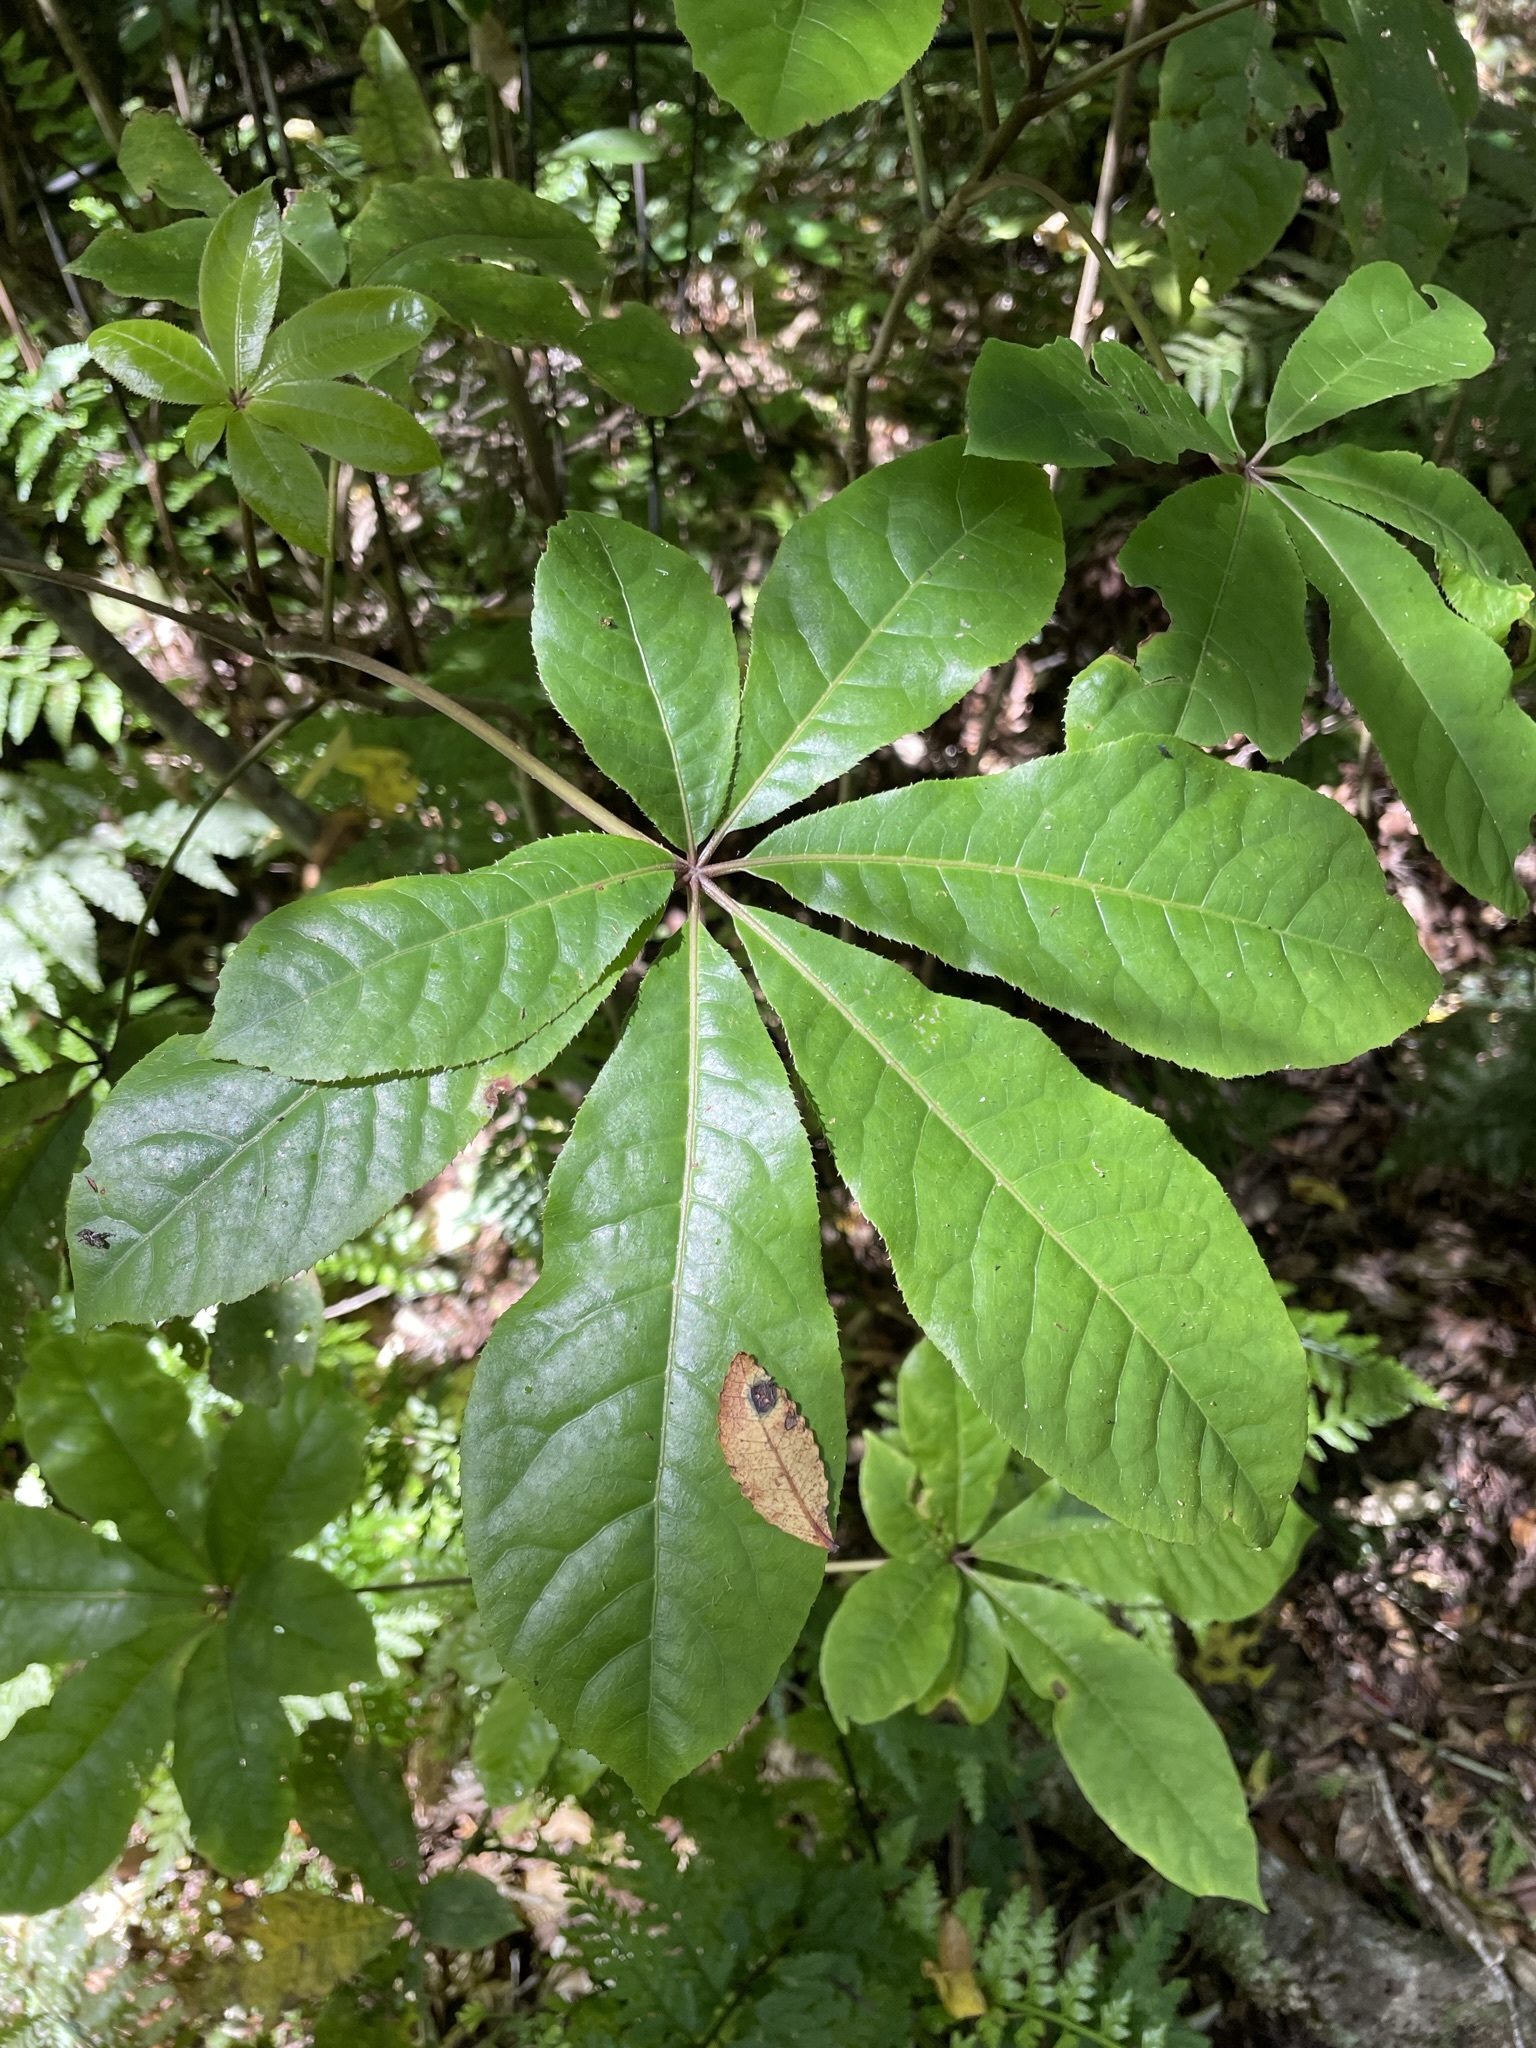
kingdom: Plantae
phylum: Tracheophyta
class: Magnoliopsida
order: Apiales
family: Araliaceae
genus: Schefflera
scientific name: Schefflera digitata
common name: Pate
